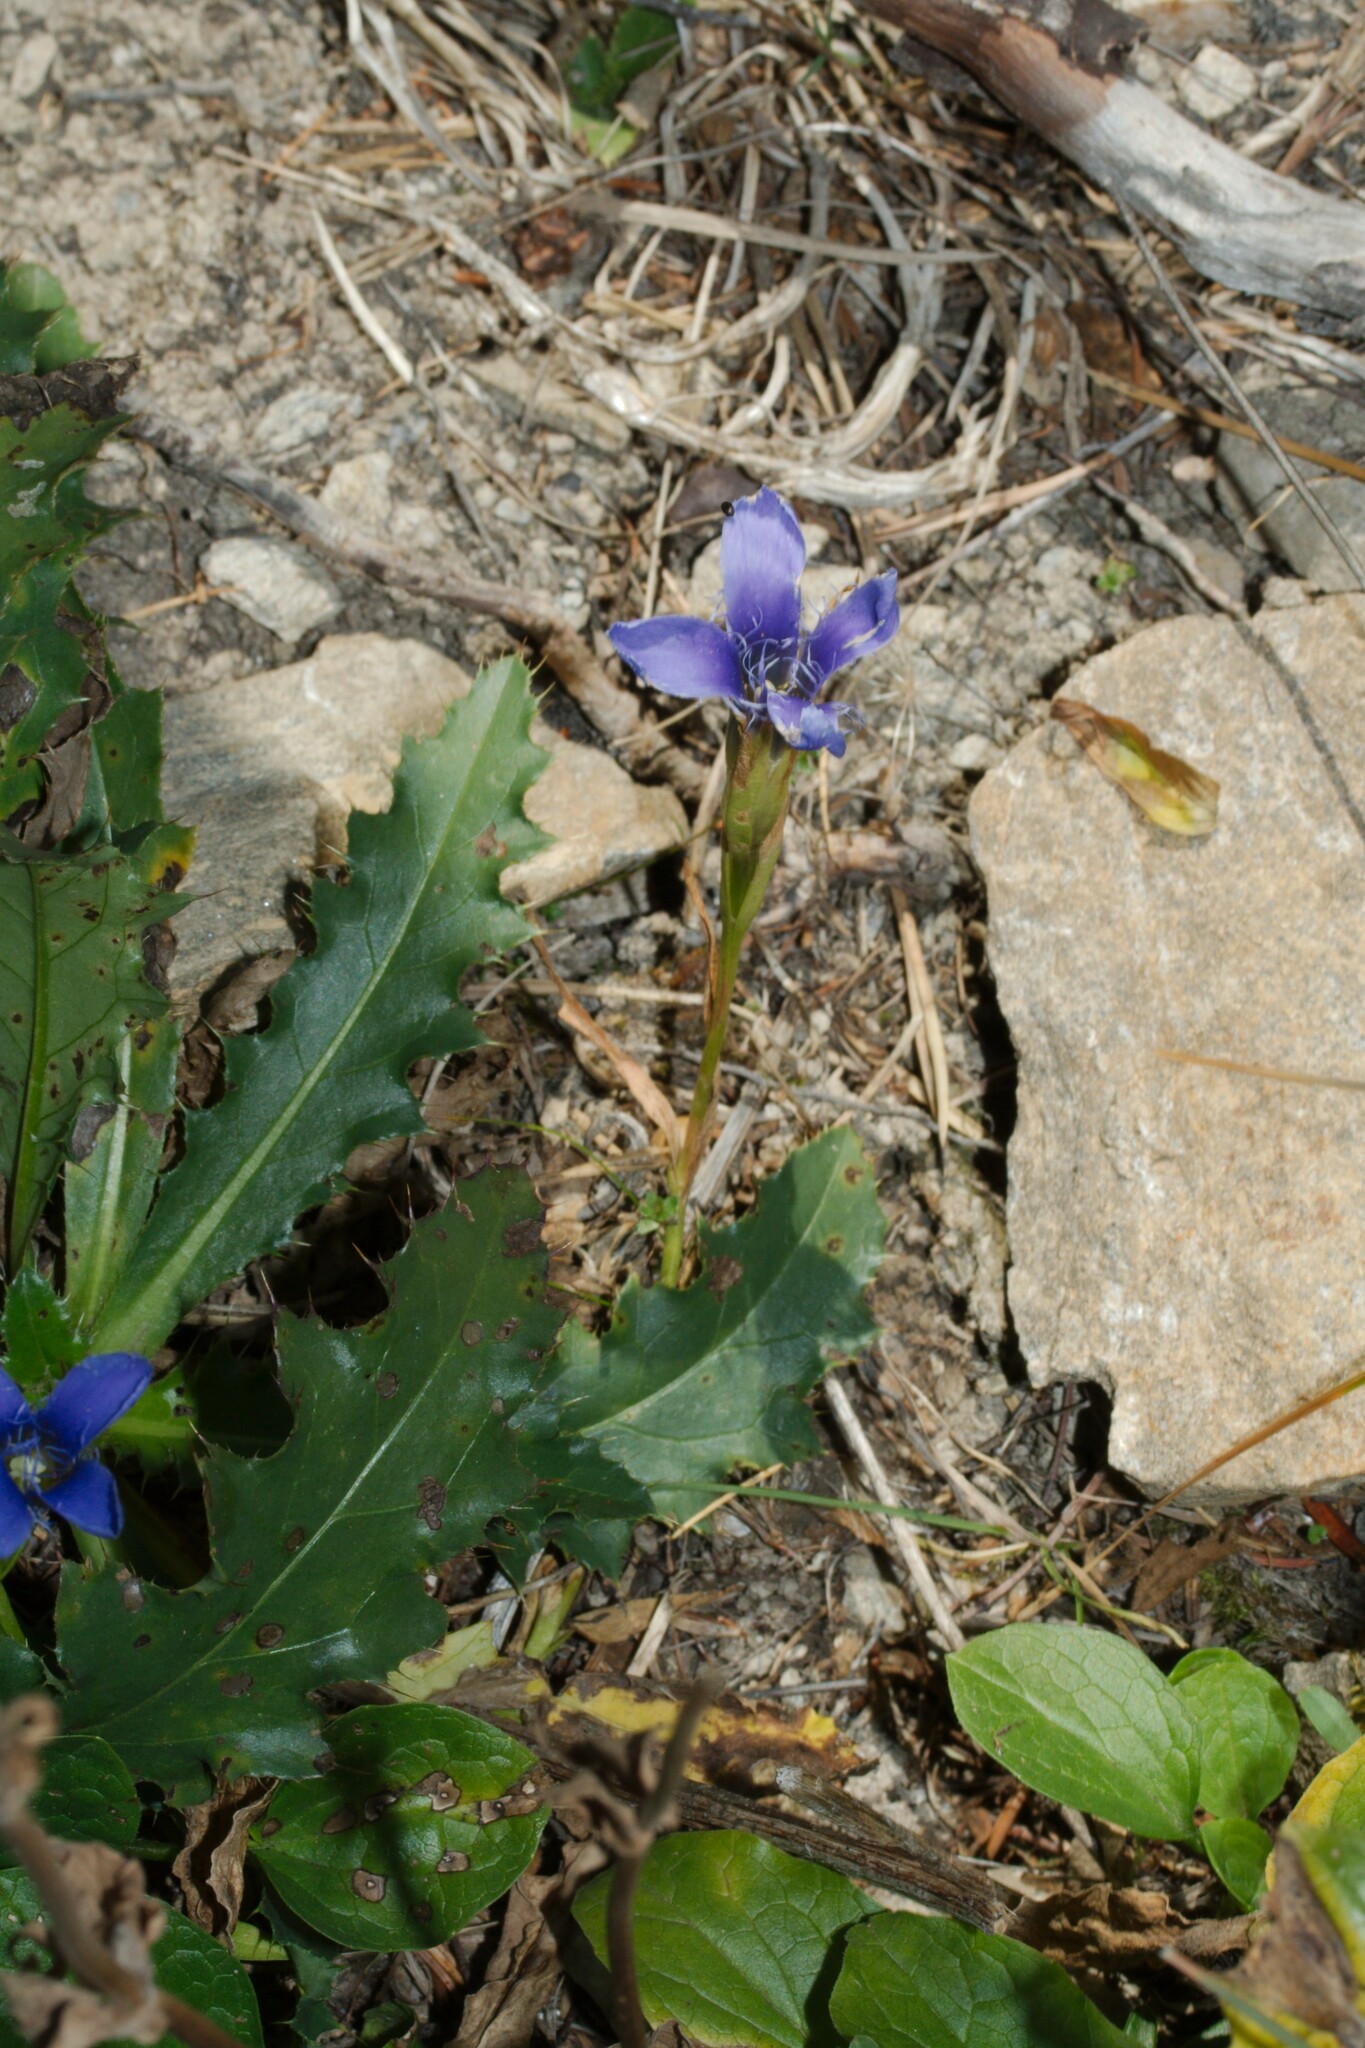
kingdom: Plantae
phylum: Tracheophyta
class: Magnoliopsida
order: Gentianales
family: Gentianaceae
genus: Gentianopsis
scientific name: Gentianopsis ciliata
